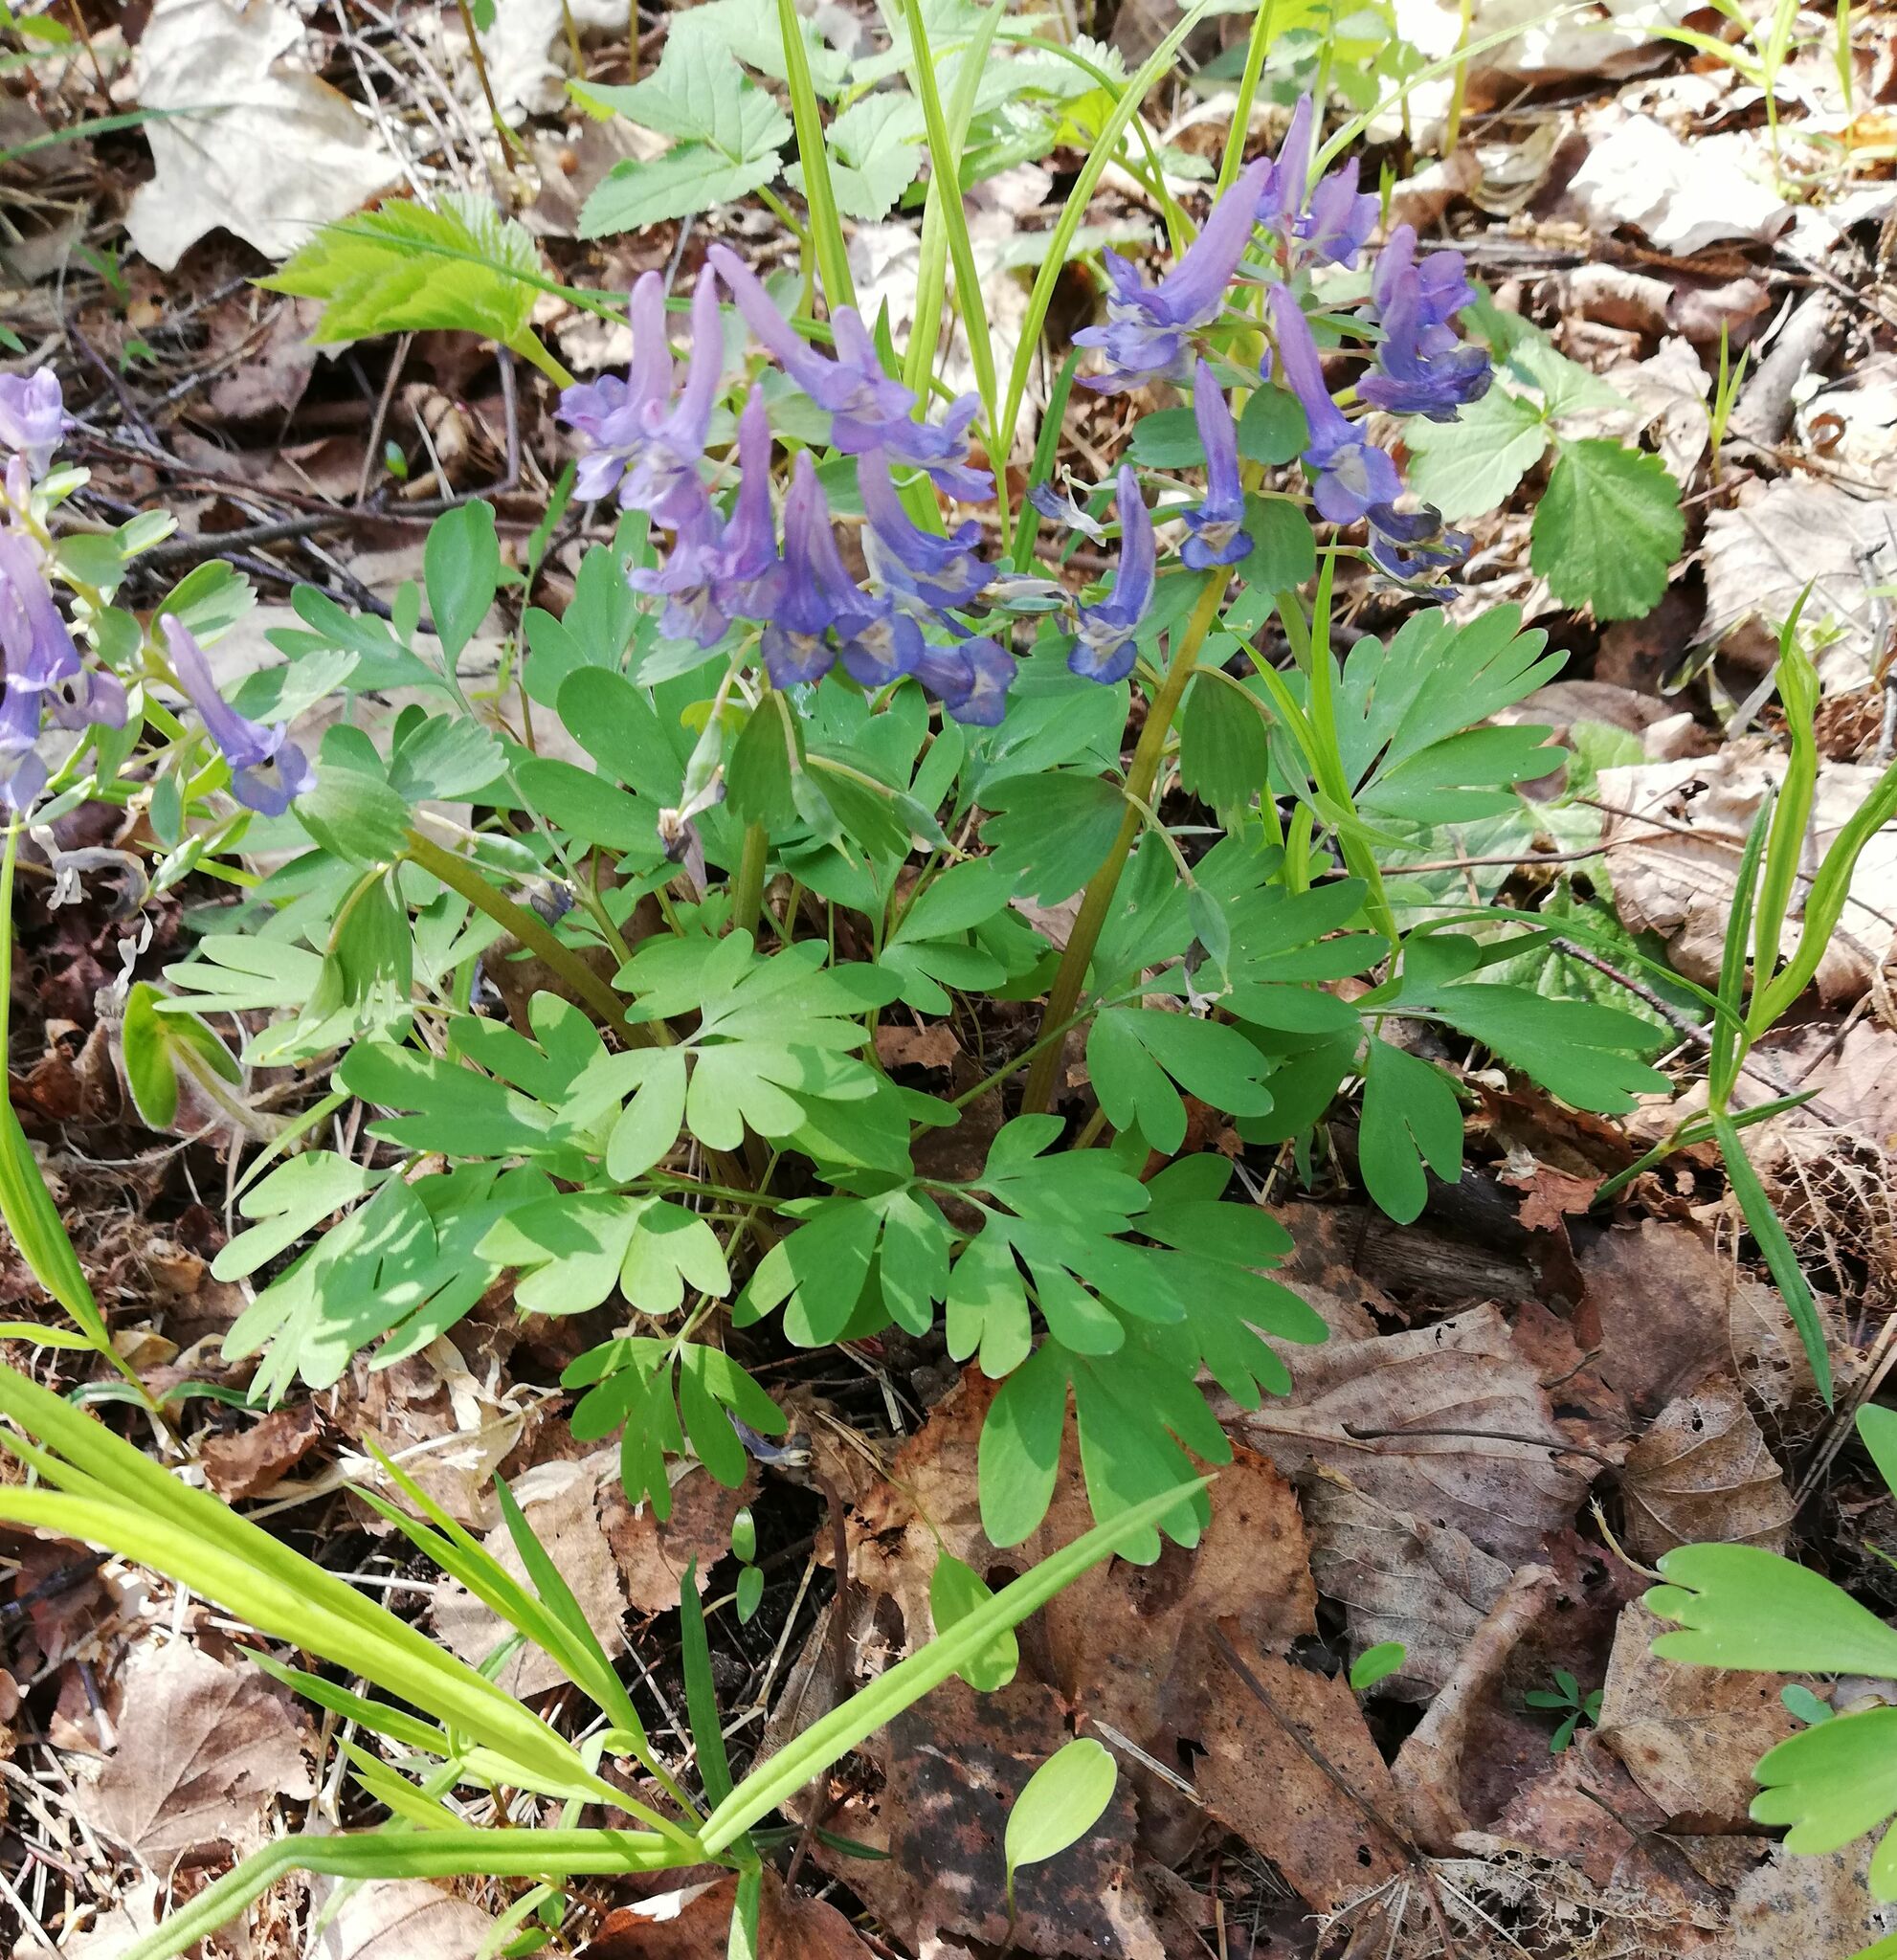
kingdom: Plantae
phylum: Tracheophyta
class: Magnoliopsida
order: Ranunculales
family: Papaveraceae
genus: Corydalis
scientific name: Corydalis solida
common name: Bird-in-a-bush
